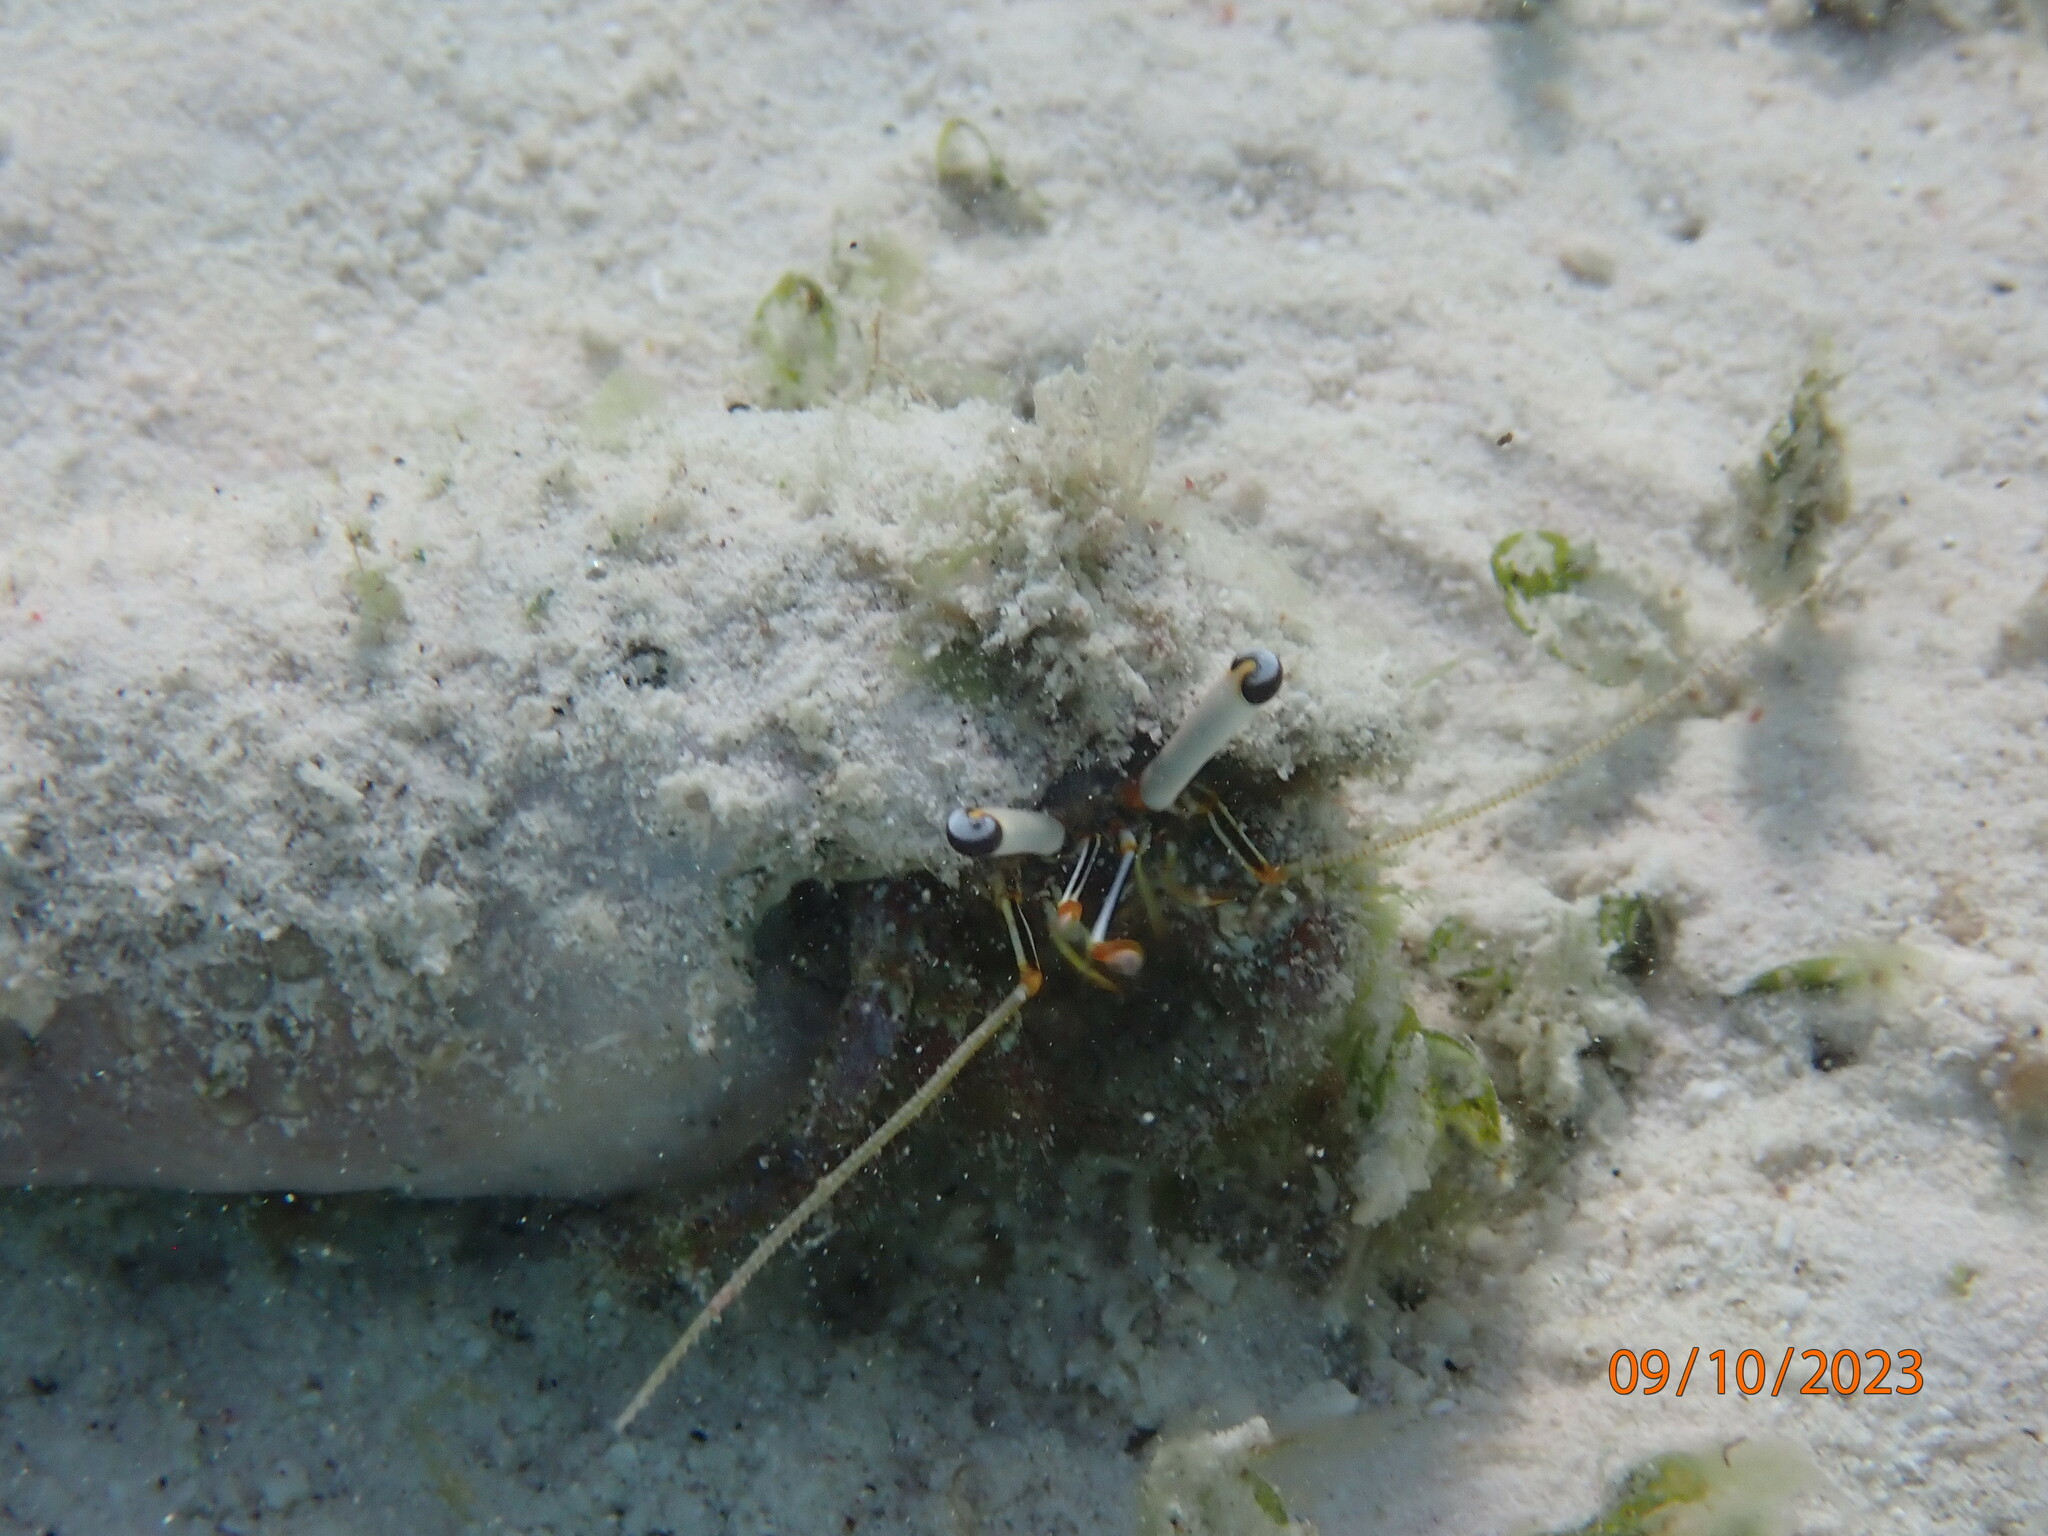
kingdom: Animalia
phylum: Arthropoda
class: Malacostraca
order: Decapoda
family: Diogenidae
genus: Dardanus
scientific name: Dardanus scutellatus
